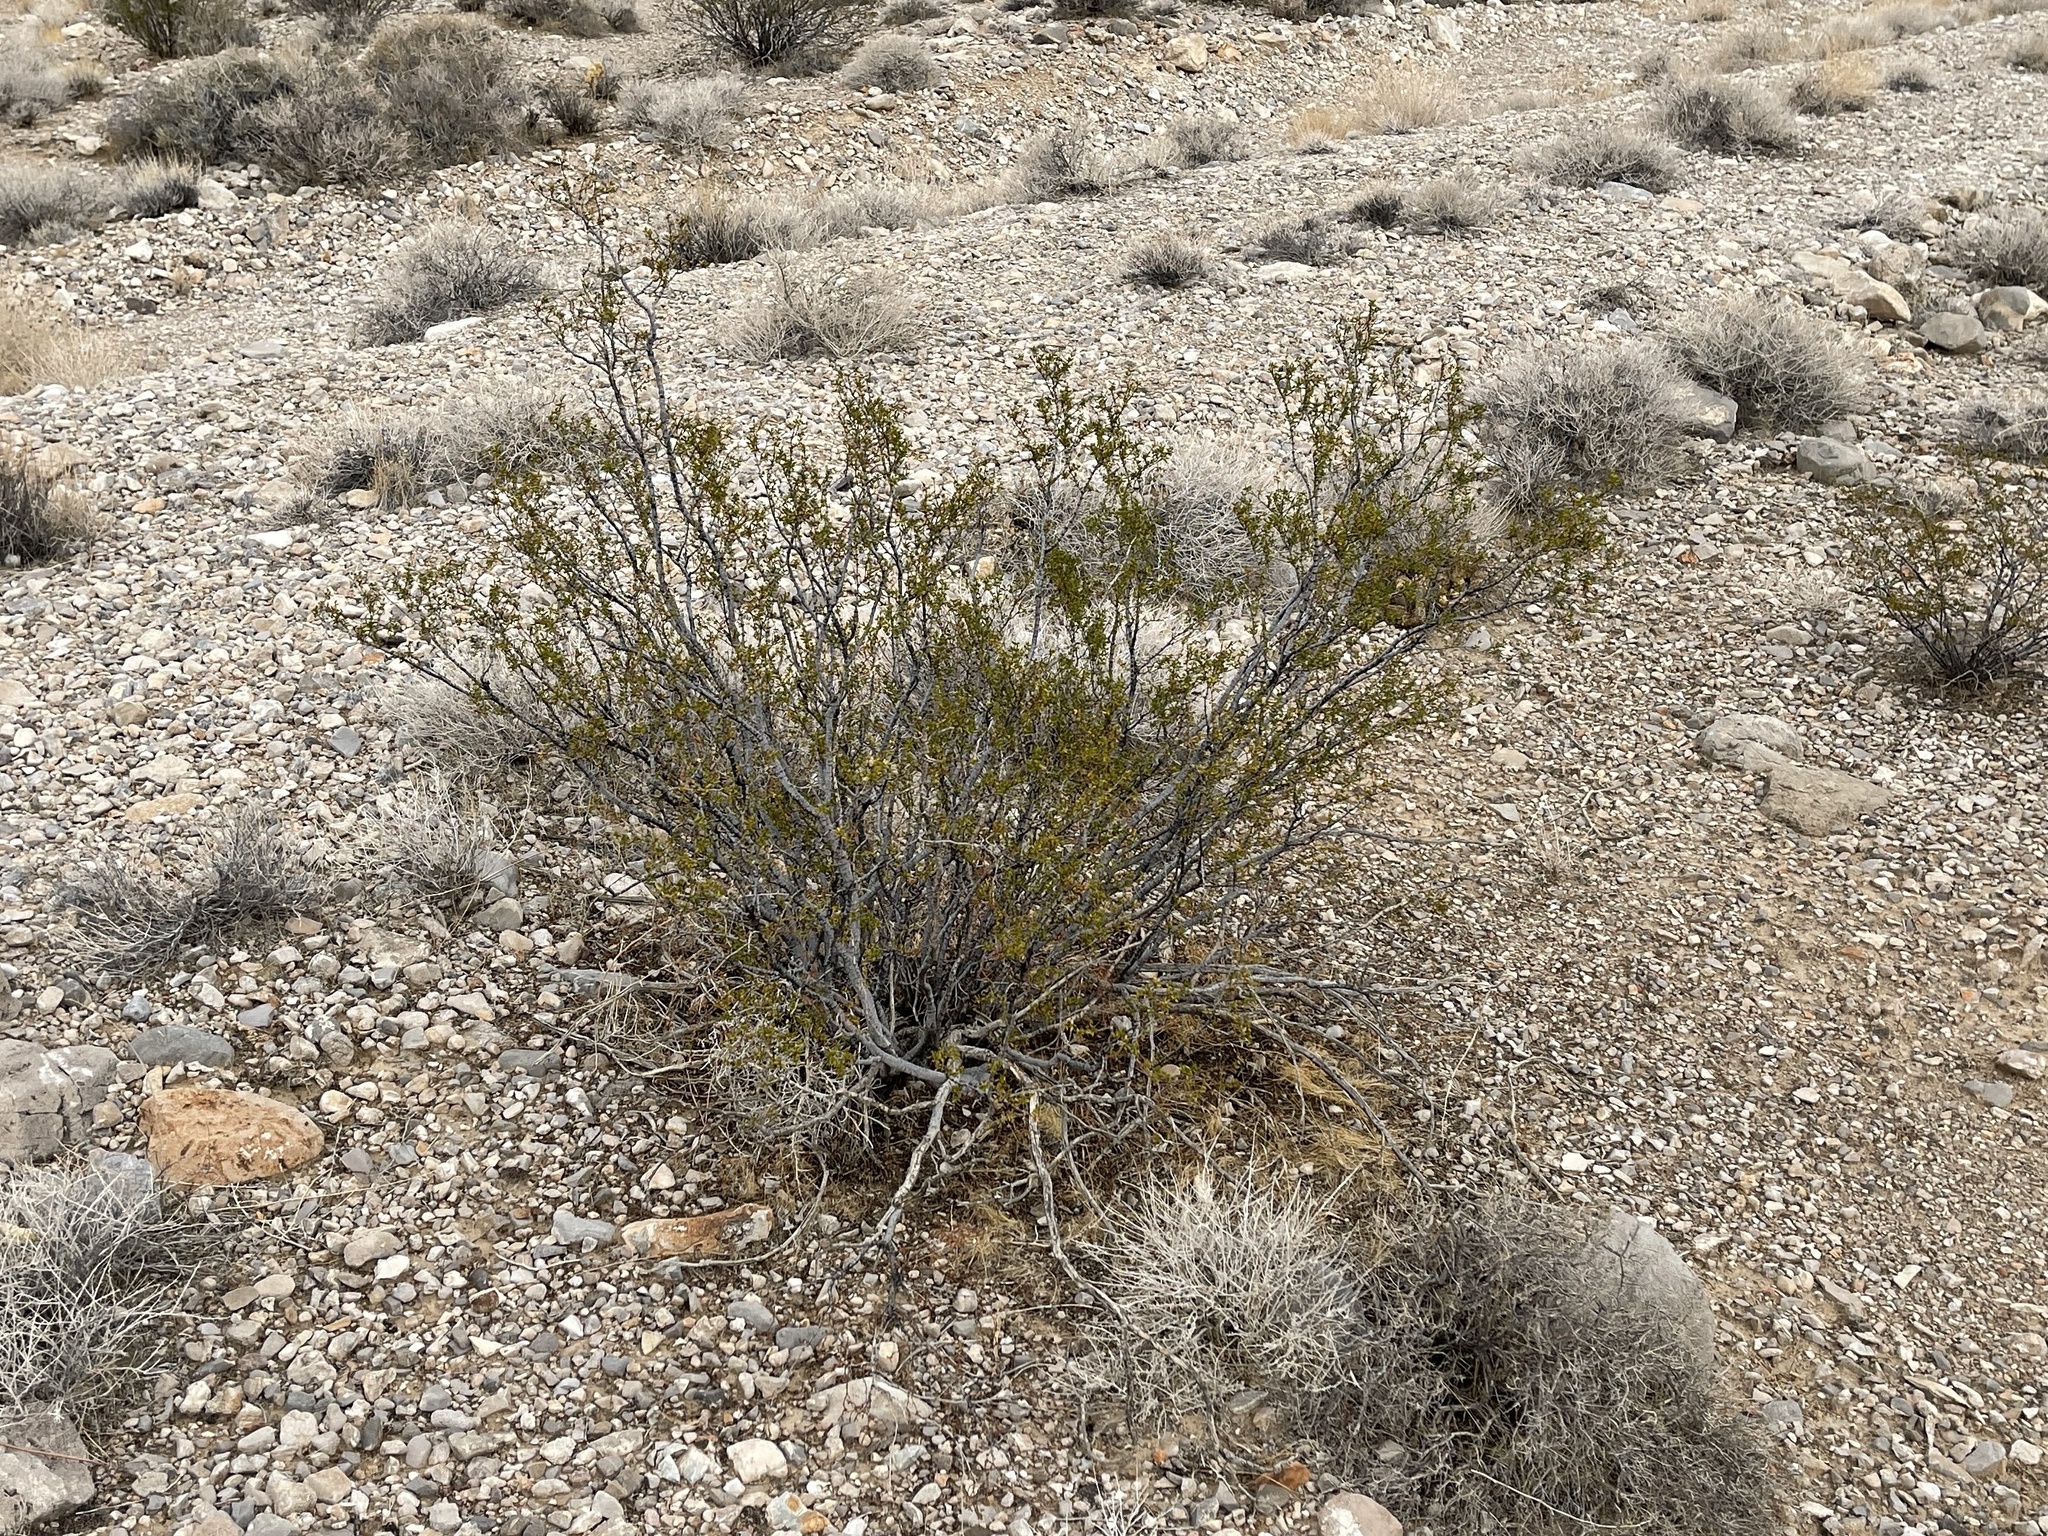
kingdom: Plantae
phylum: Tracheophyta
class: Magnoliopsida
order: Zygophyllales
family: Zygophyllaceae
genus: Larrea
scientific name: Larrea tridentata
